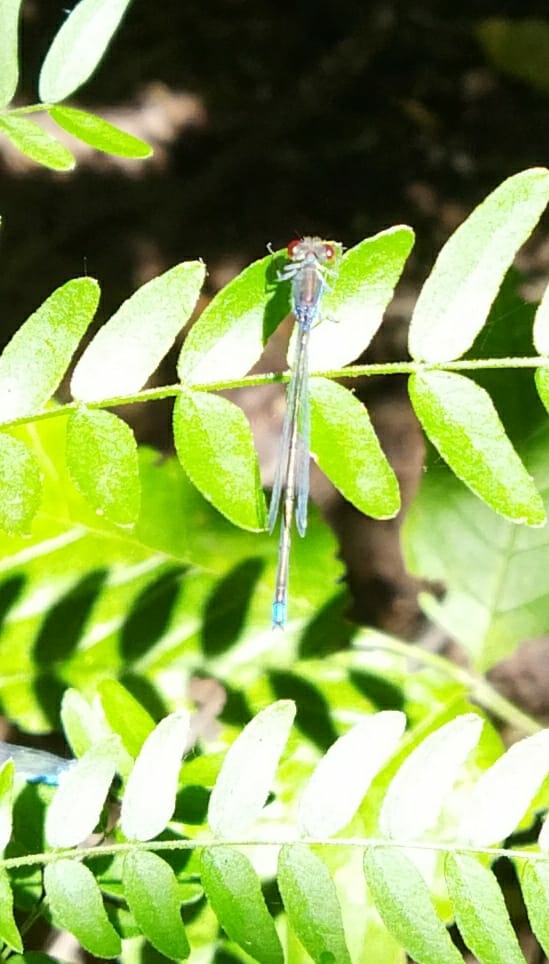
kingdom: Animalia
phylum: Arthropoda
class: Insecta
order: Odonata
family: Coenagrionidae
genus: Erythromma
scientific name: Erythromma viridulum
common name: Small red-eyed damselfly
